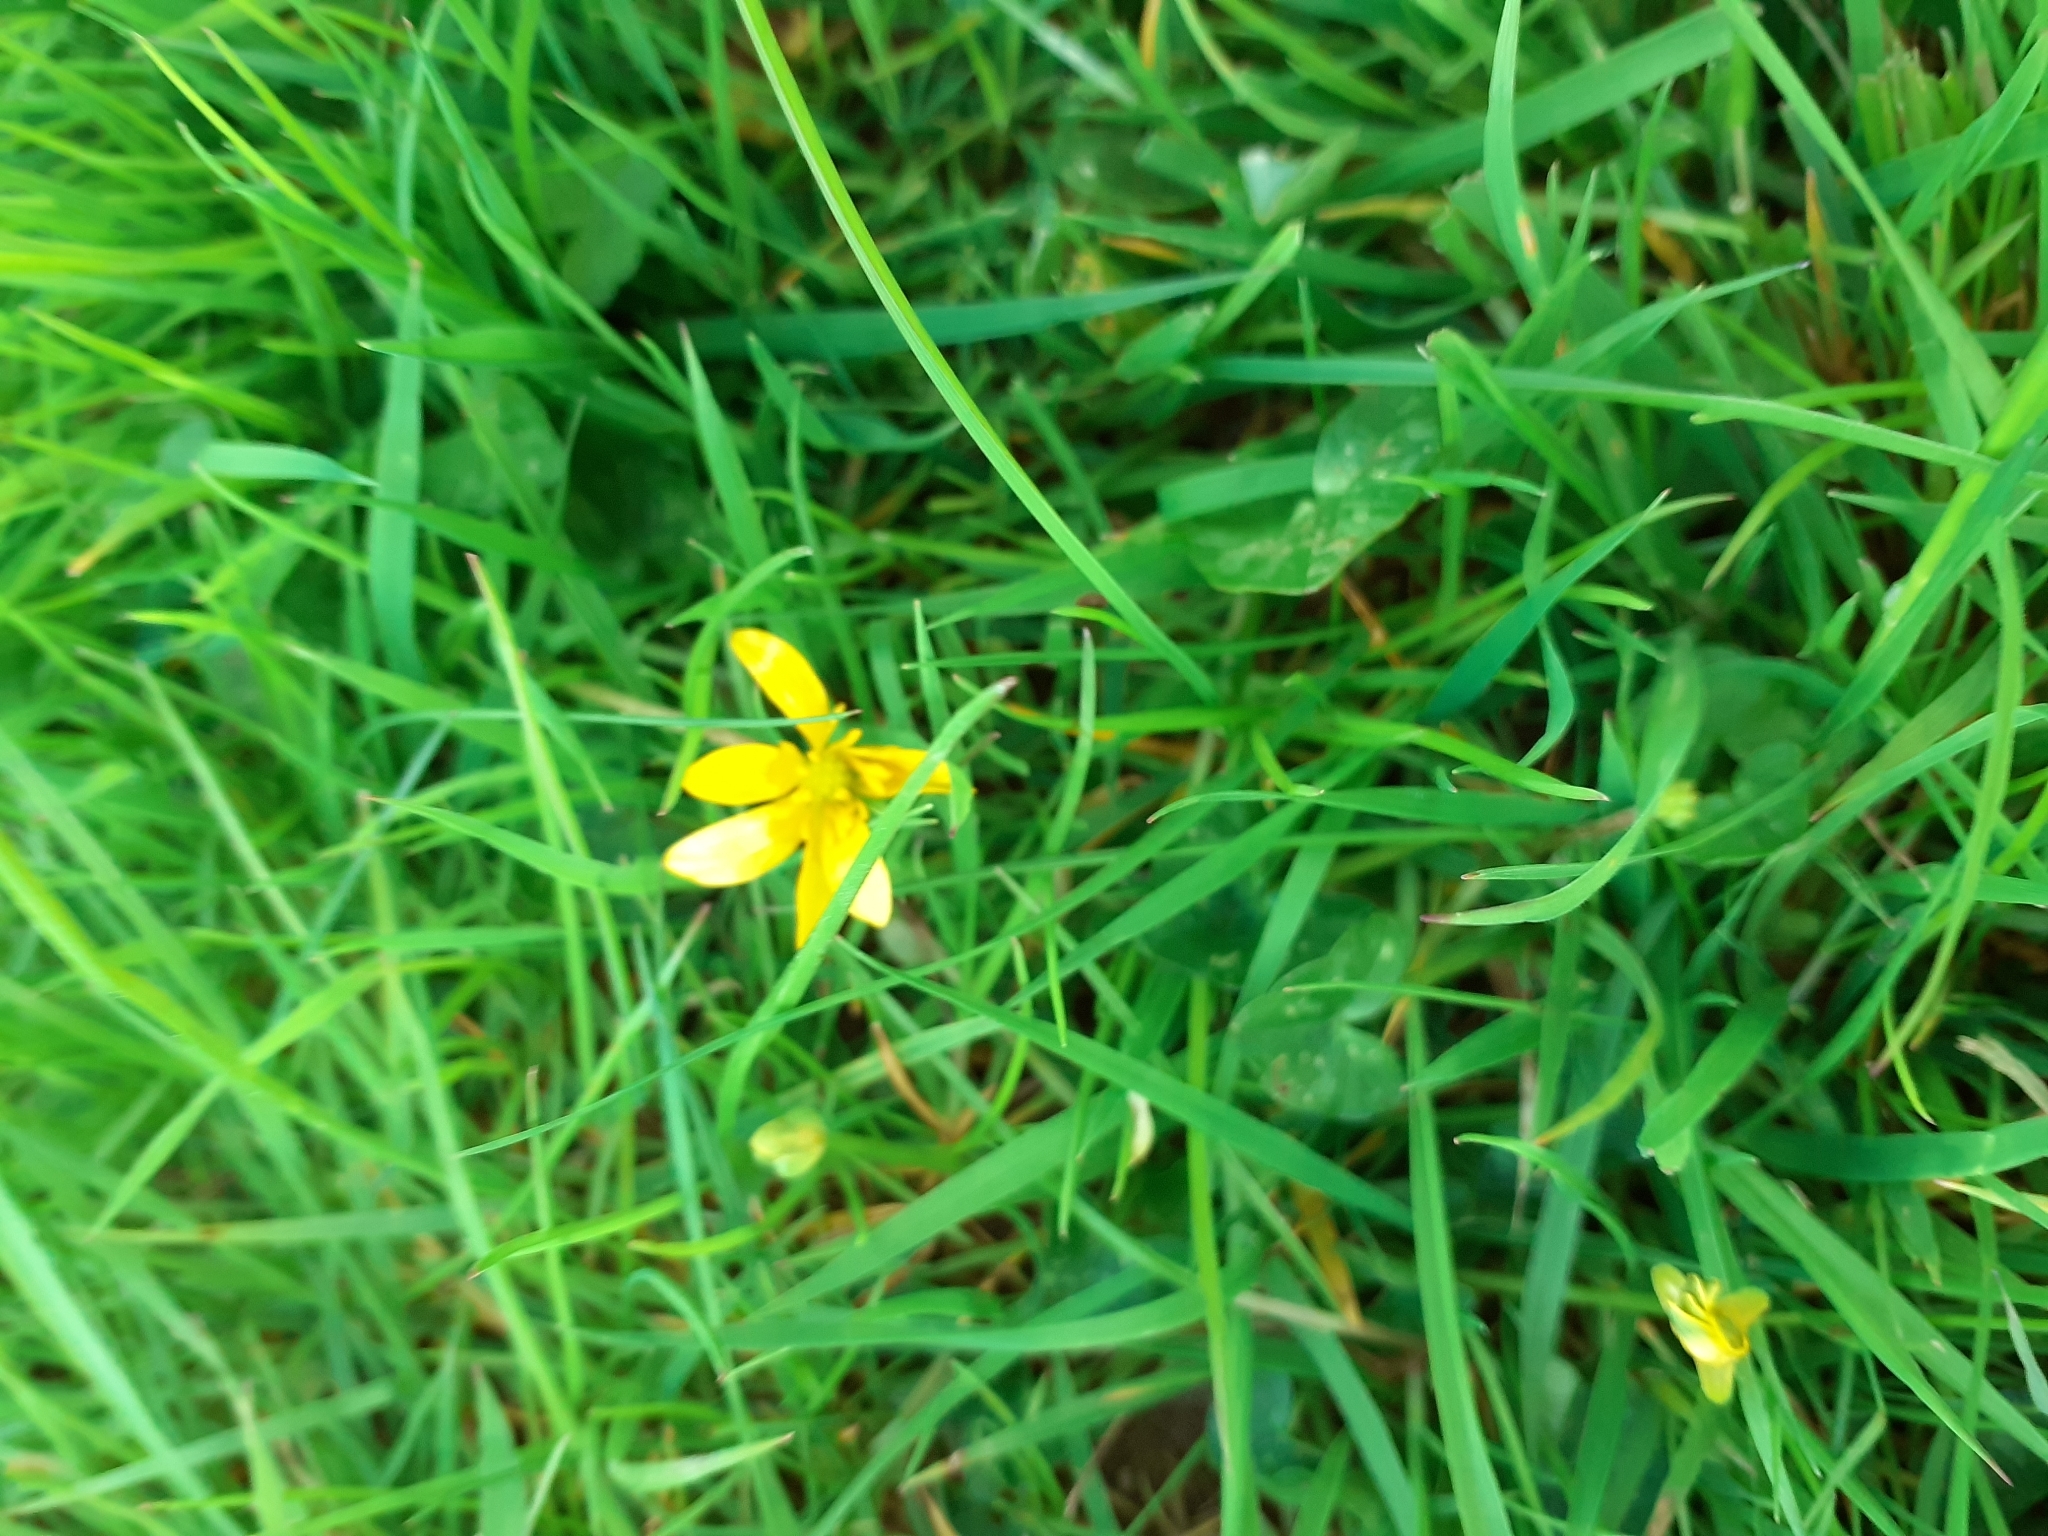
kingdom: Plantae
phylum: Tracheophyta
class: Magnoliopsida
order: Ranunculales
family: Ranunculaceae
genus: Ficaria
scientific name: Ficaria verna
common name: Lesser celandine
